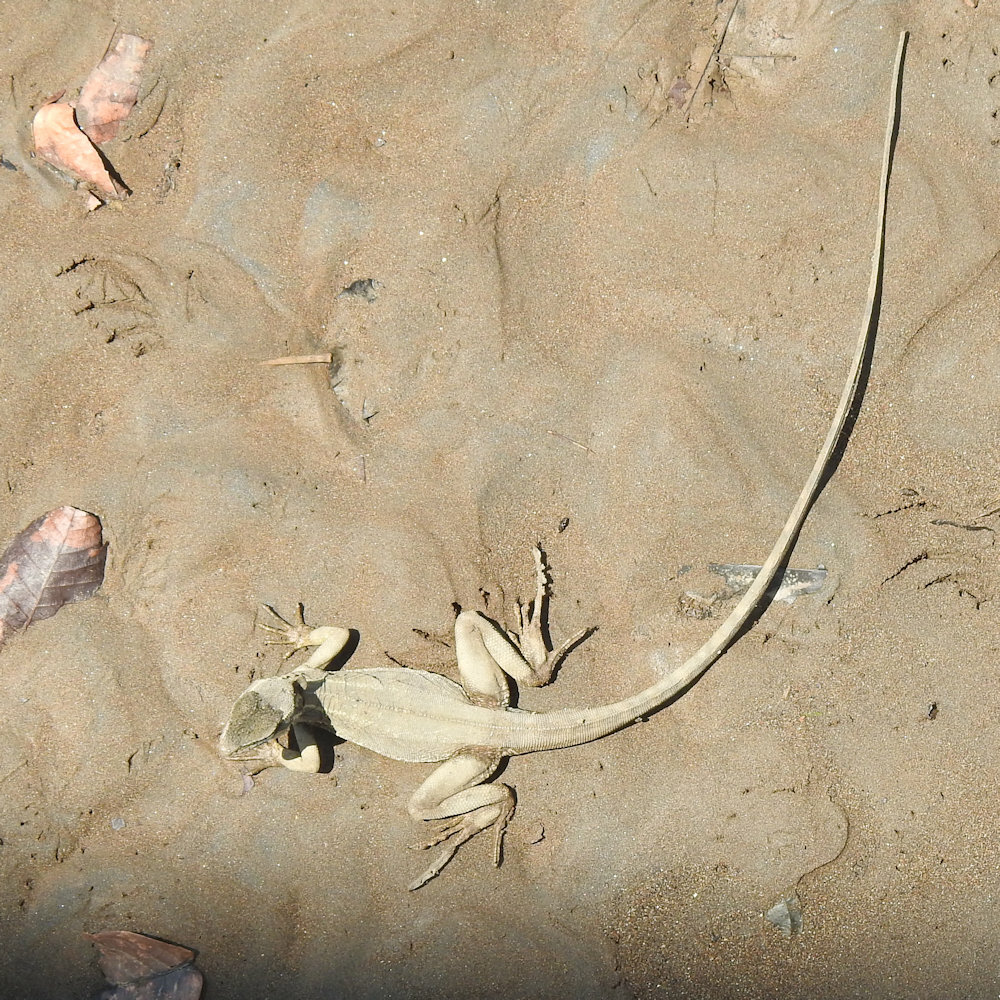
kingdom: Animalia
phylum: Chordata
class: Squamata
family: Corytophanidae
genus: Basiliscus
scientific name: Basiliscus basiliscus
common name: Common basilisk
